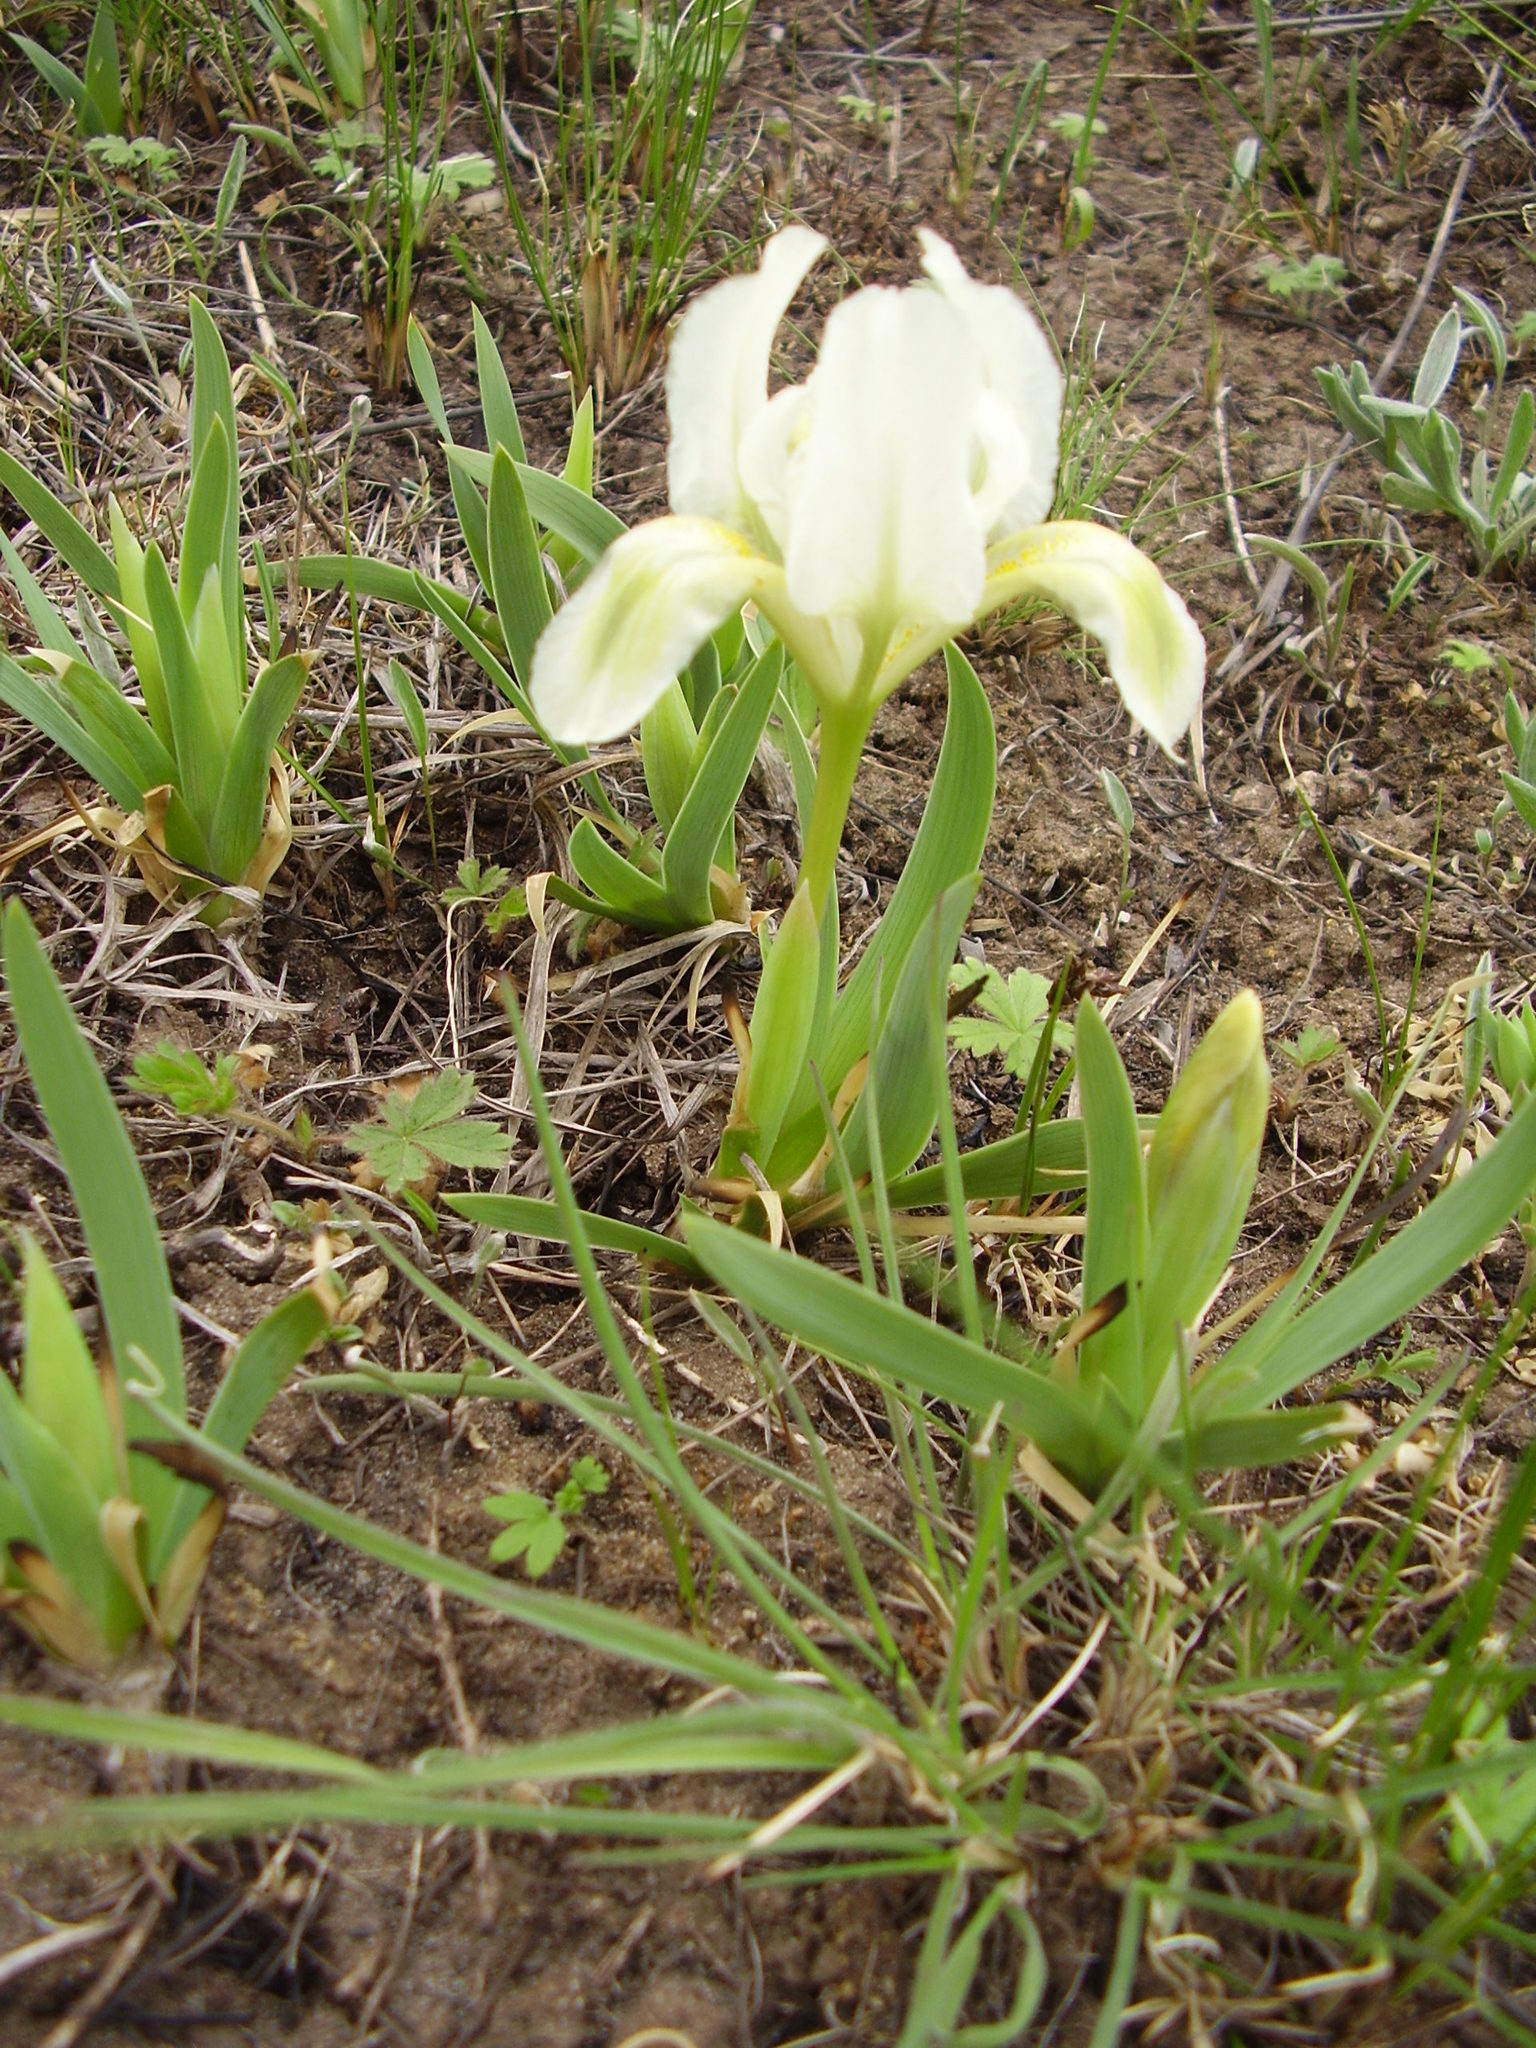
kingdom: Plantae
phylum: Tracheophyta
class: Liliopsida
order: Asparagales
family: Iridaceae
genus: Iris
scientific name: Iris pumila
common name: Dwarf iris
